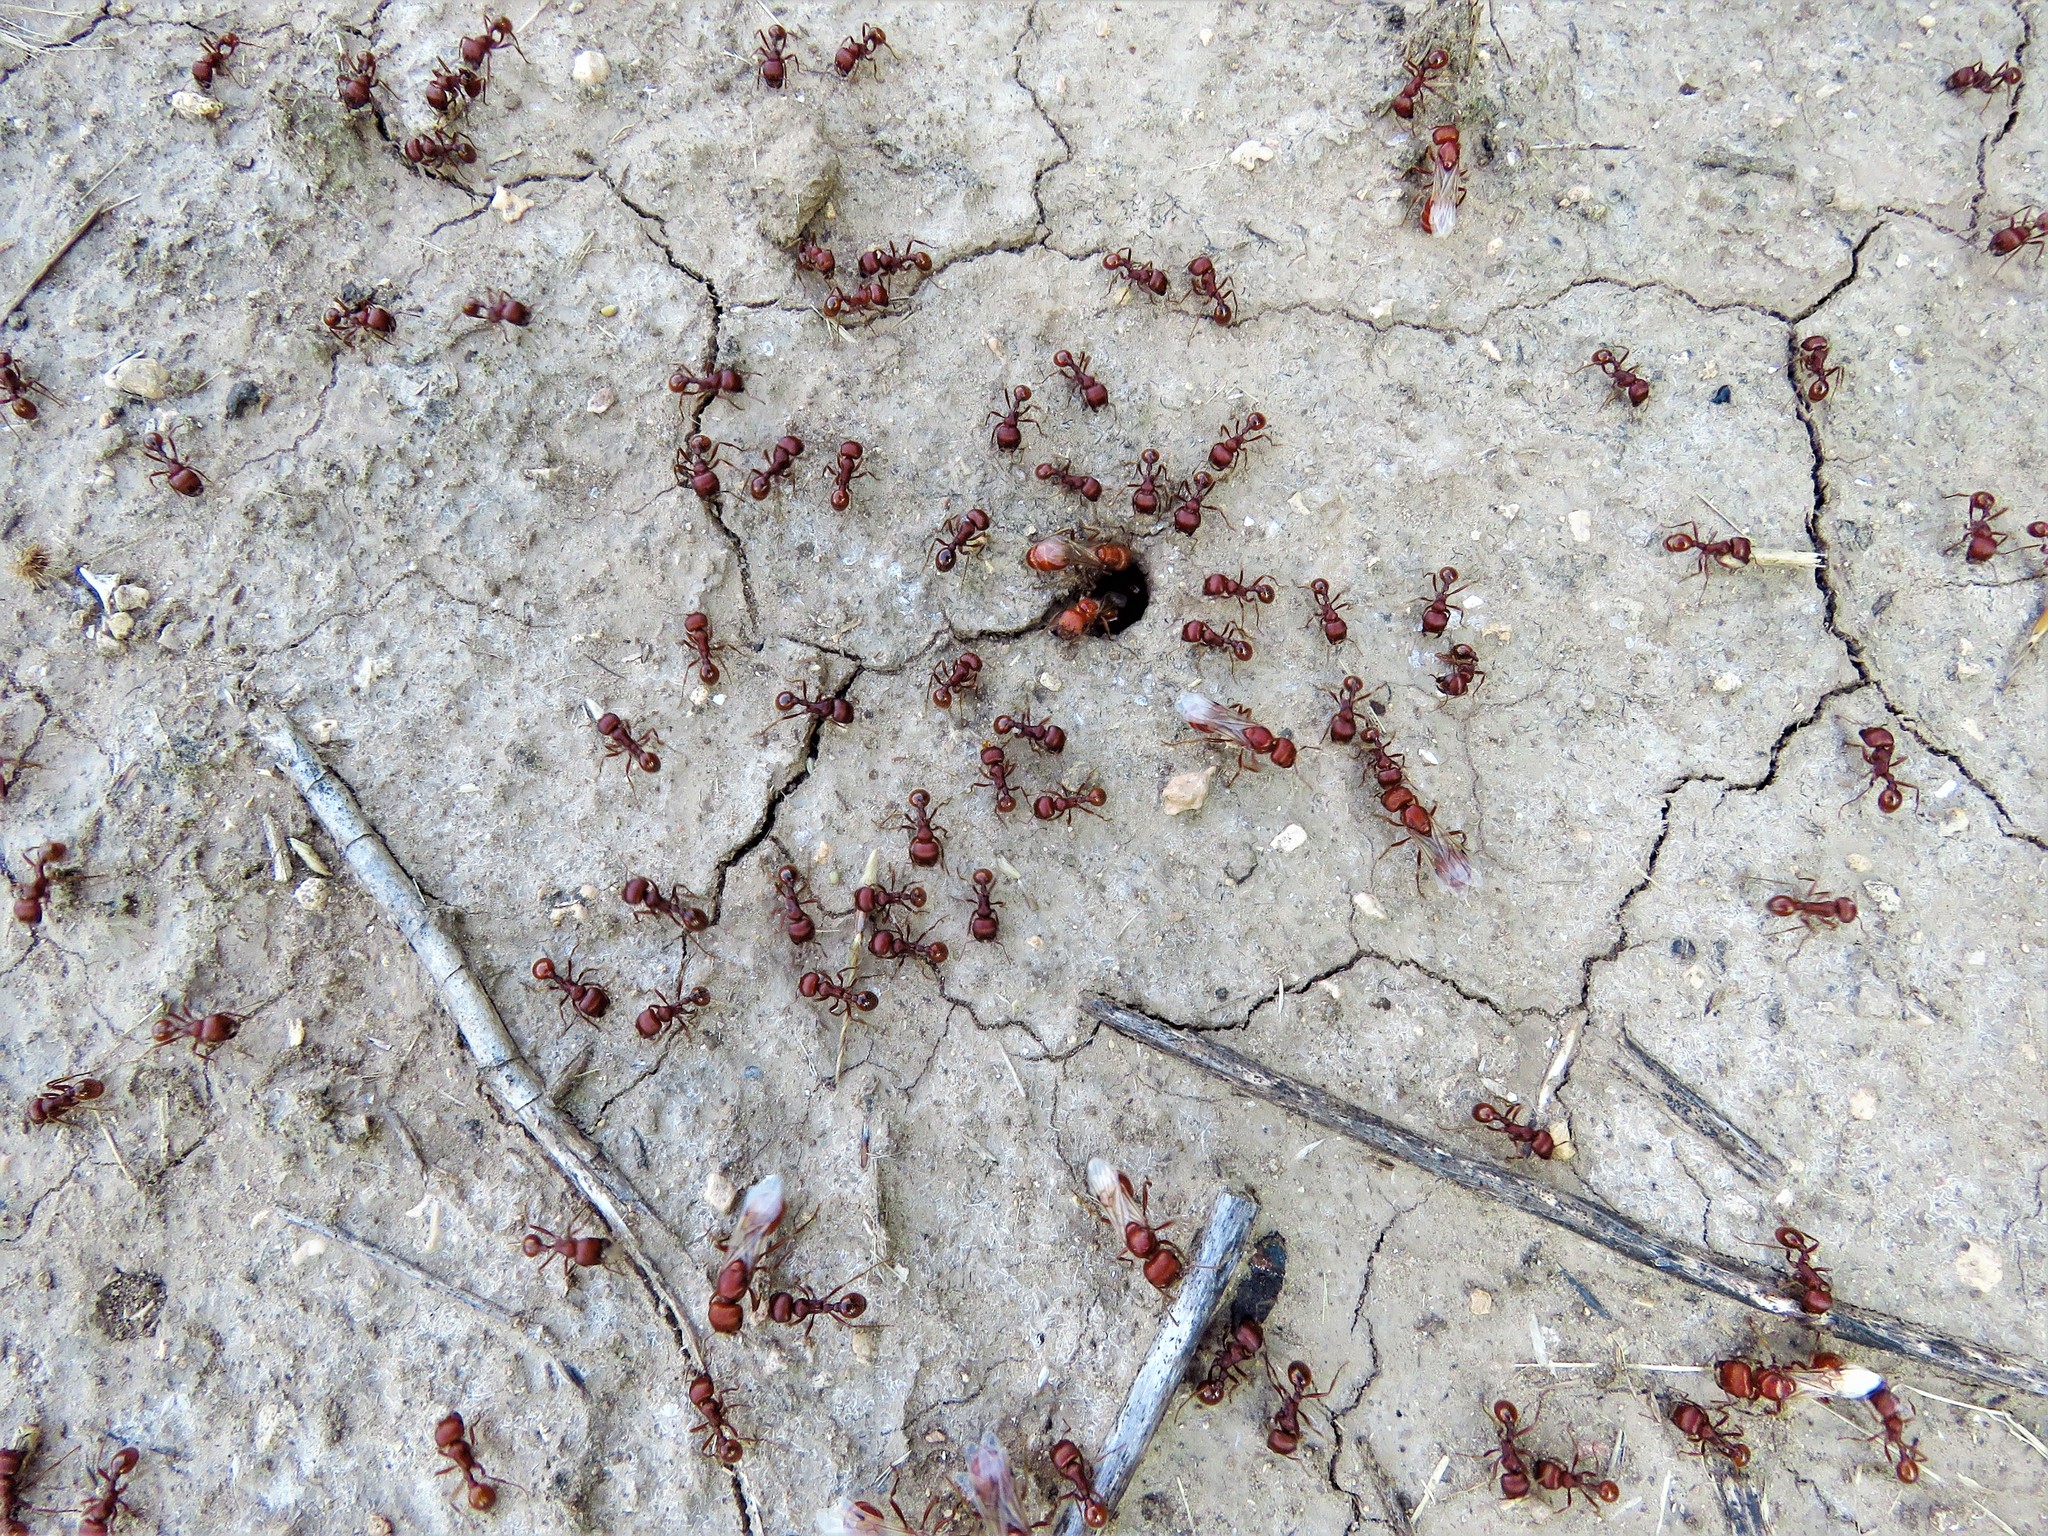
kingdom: Animalia
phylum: Arthropoda
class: Insecta
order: Hymenoptera
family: Formicidae
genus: Pogonomyrmex
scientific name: Pogonomyrmex barbatus
